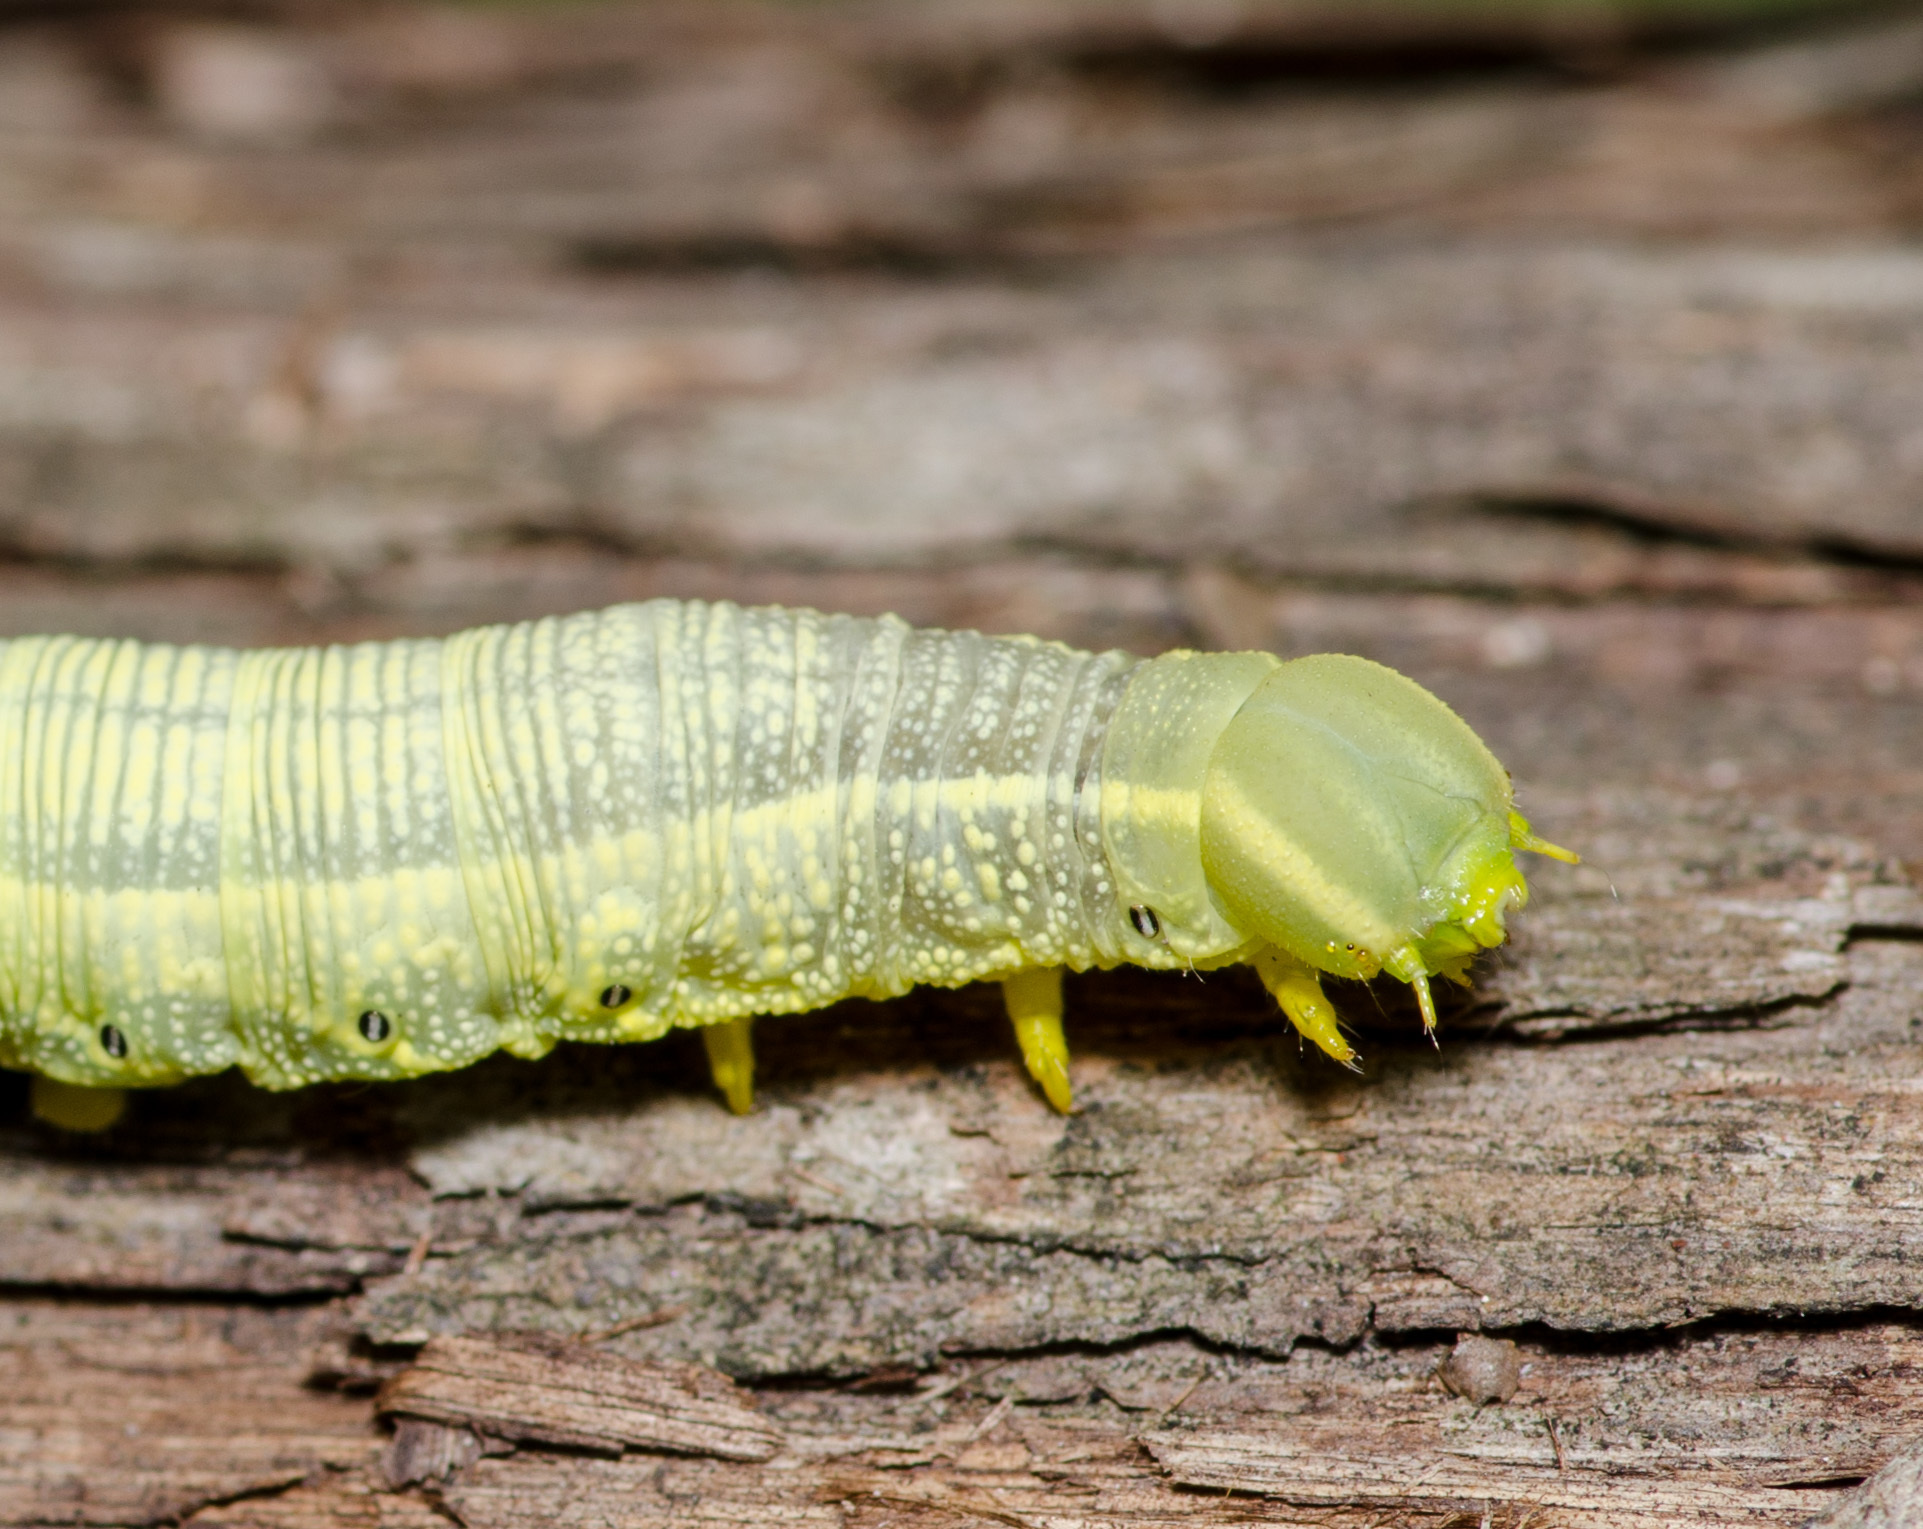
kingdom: Animalia
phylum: Arthropoda
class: Insecta
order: Lepidoptera
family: Sphingidae
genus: Deidamia
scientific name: Deidamia inscriptum
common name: Lettered sphinx
